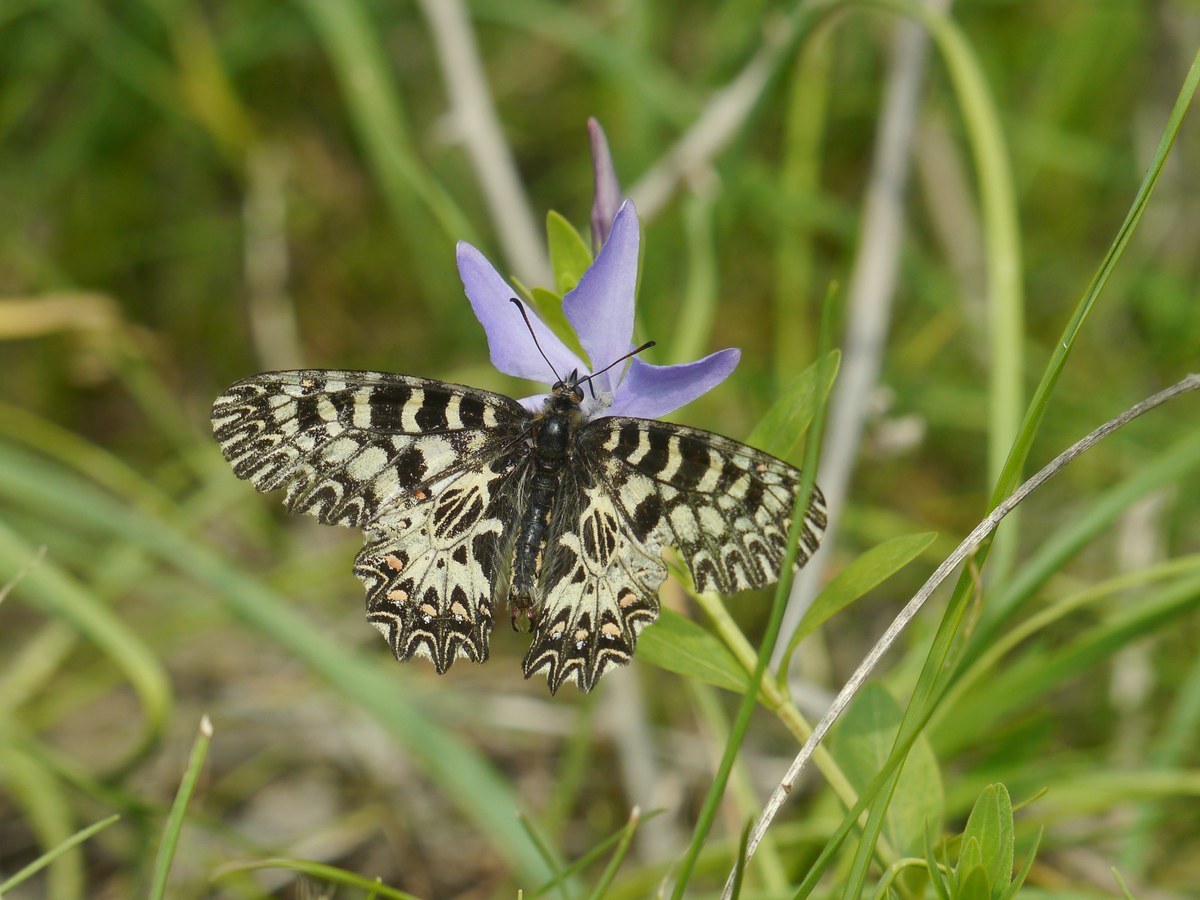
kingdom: Animalia
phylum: Arthropoda
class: Insecta
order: Lepidoptera
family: Papilionidae
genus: Zerynthia
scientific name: Zerynthia polyxena
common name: Southern festoon
